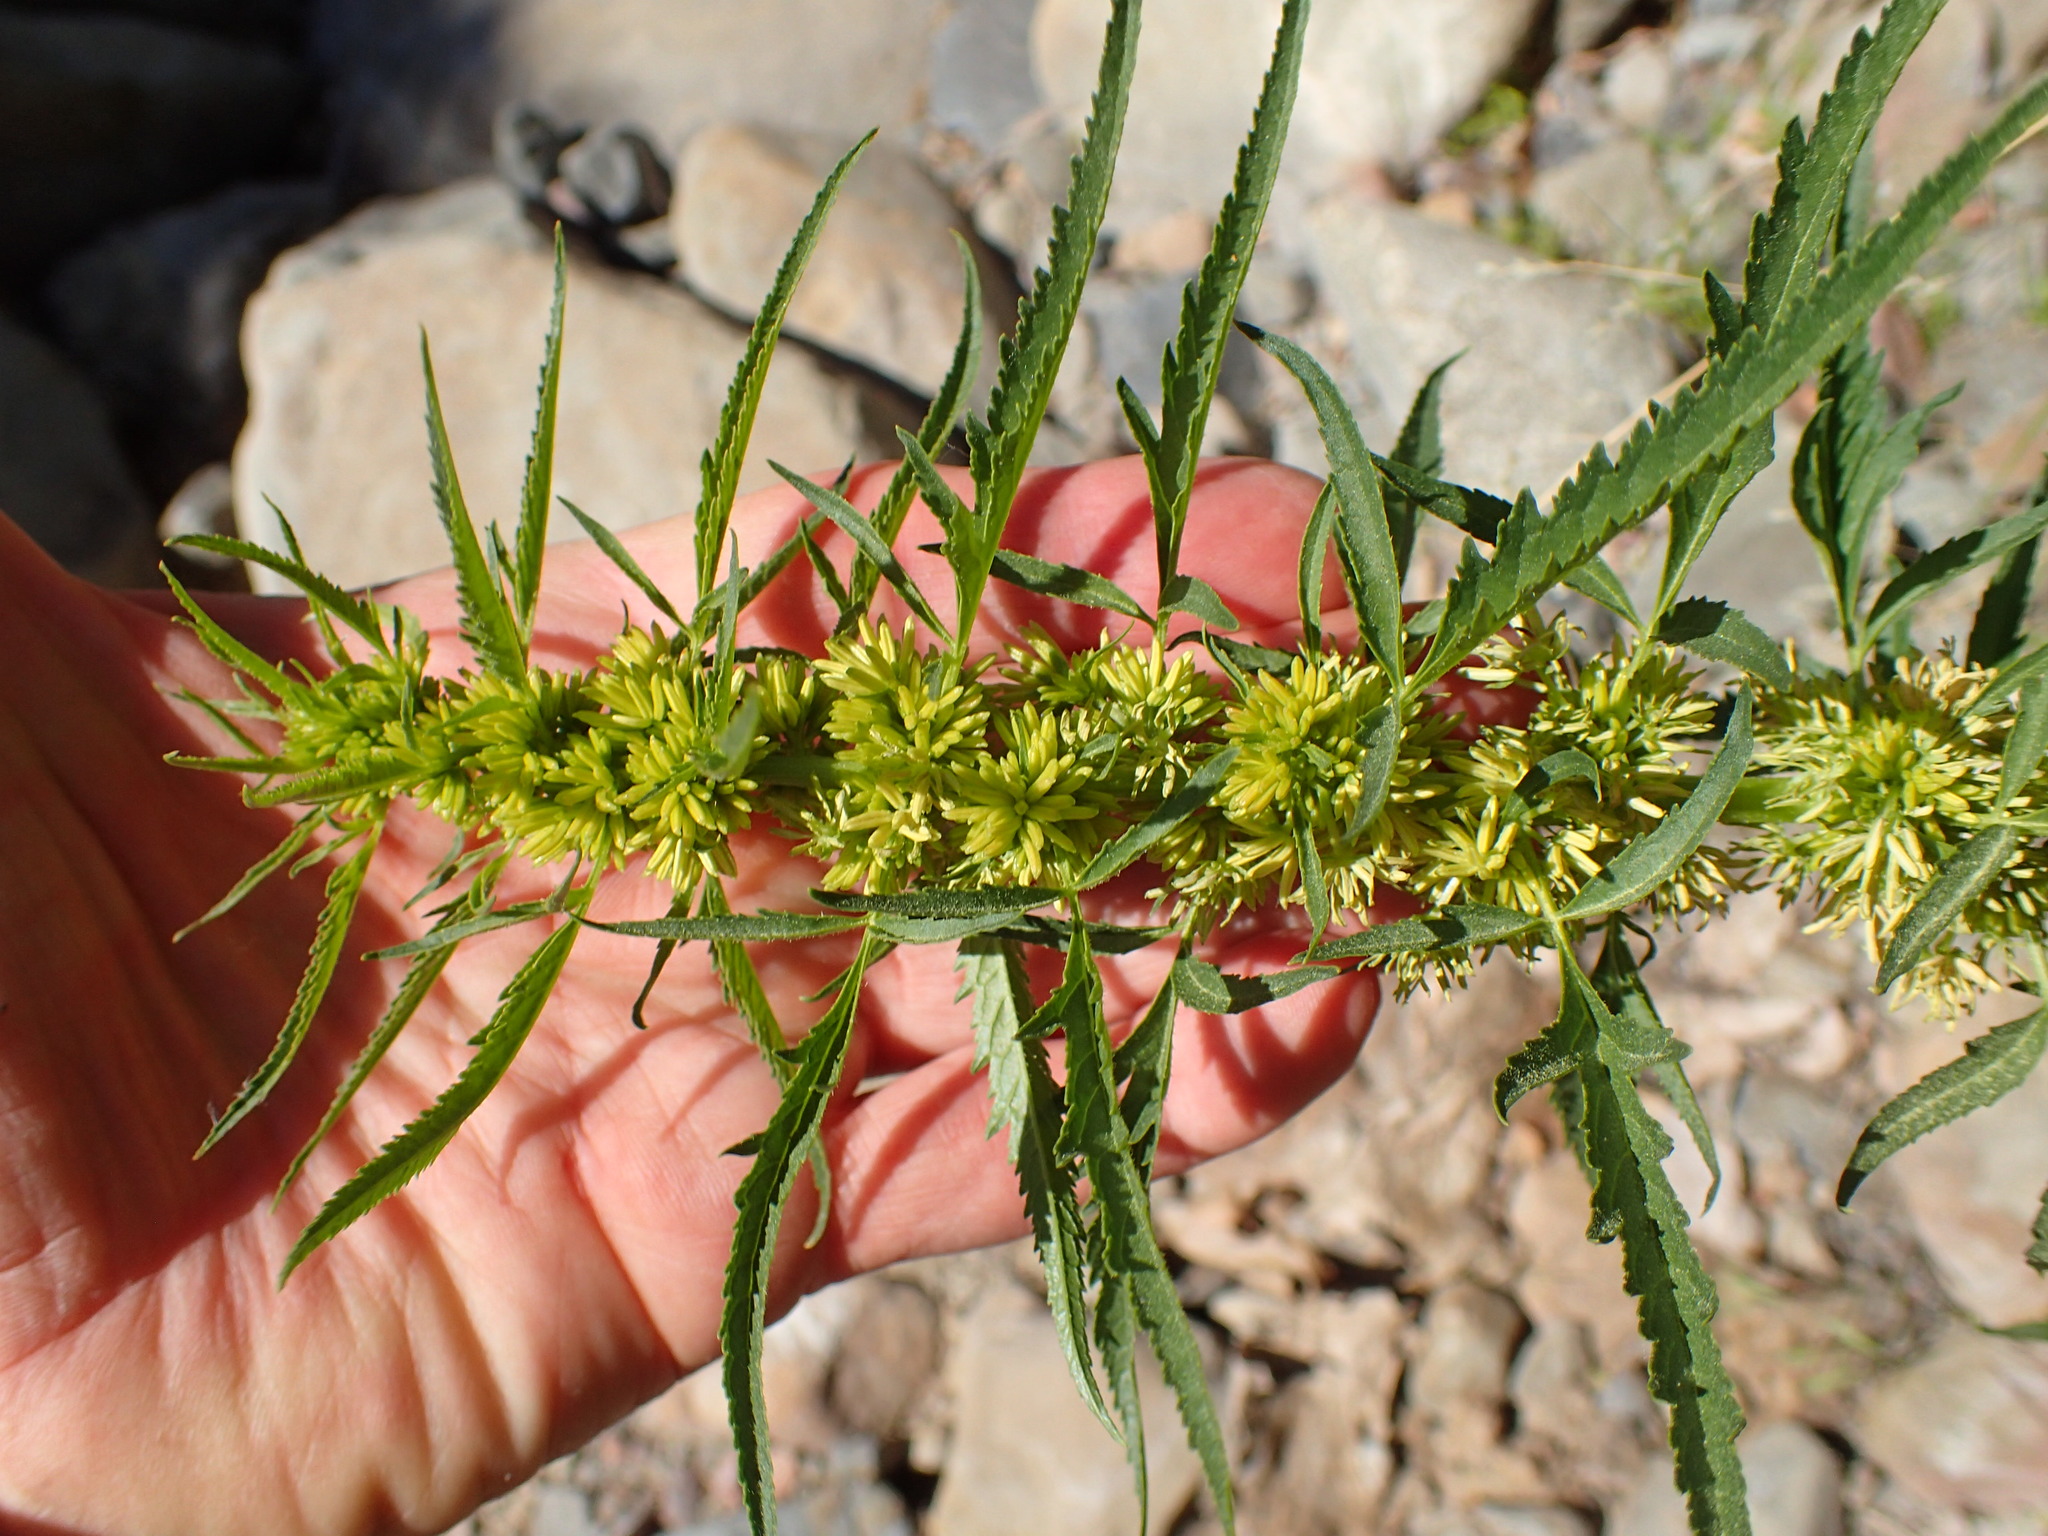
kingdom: Plantae
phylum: Tracheophyta
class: Magnoliopsida
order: Cucurbitales
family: Datiscaceae
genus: Datisca
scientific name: Datisca glomerata
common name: Durango-root
